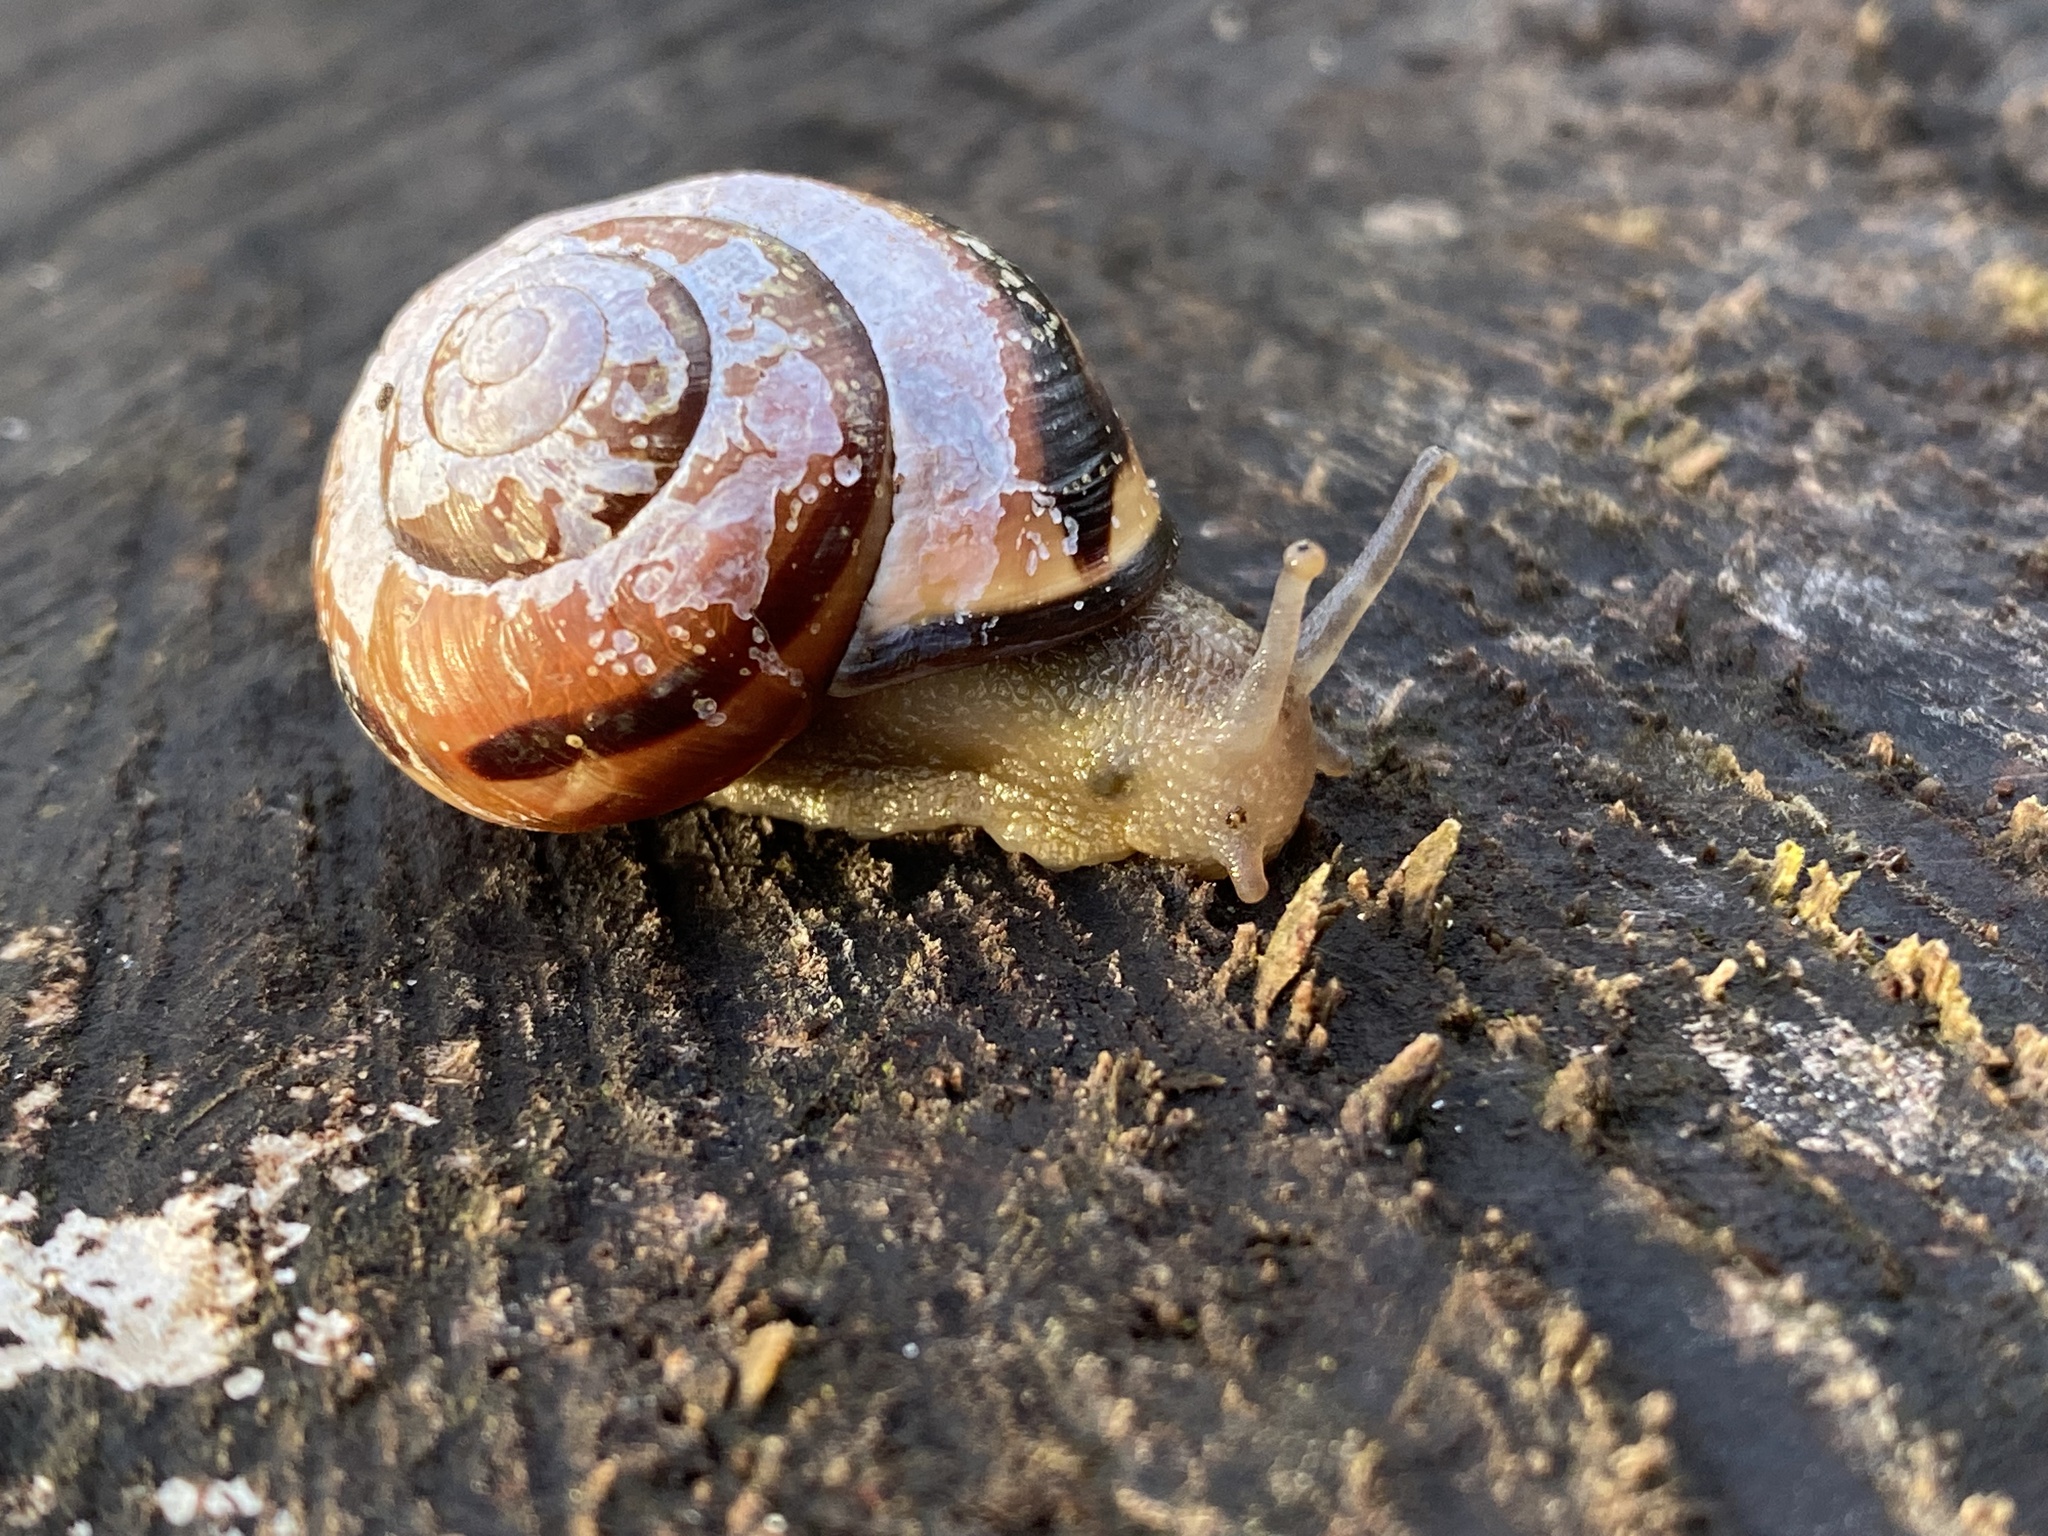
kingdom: Animalia
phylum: Mollusca
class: Gastropoda
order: Stylommatophora
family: Helicidae
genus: Cepaea
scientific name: Cepaea nemoralis
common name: Grovesnail
